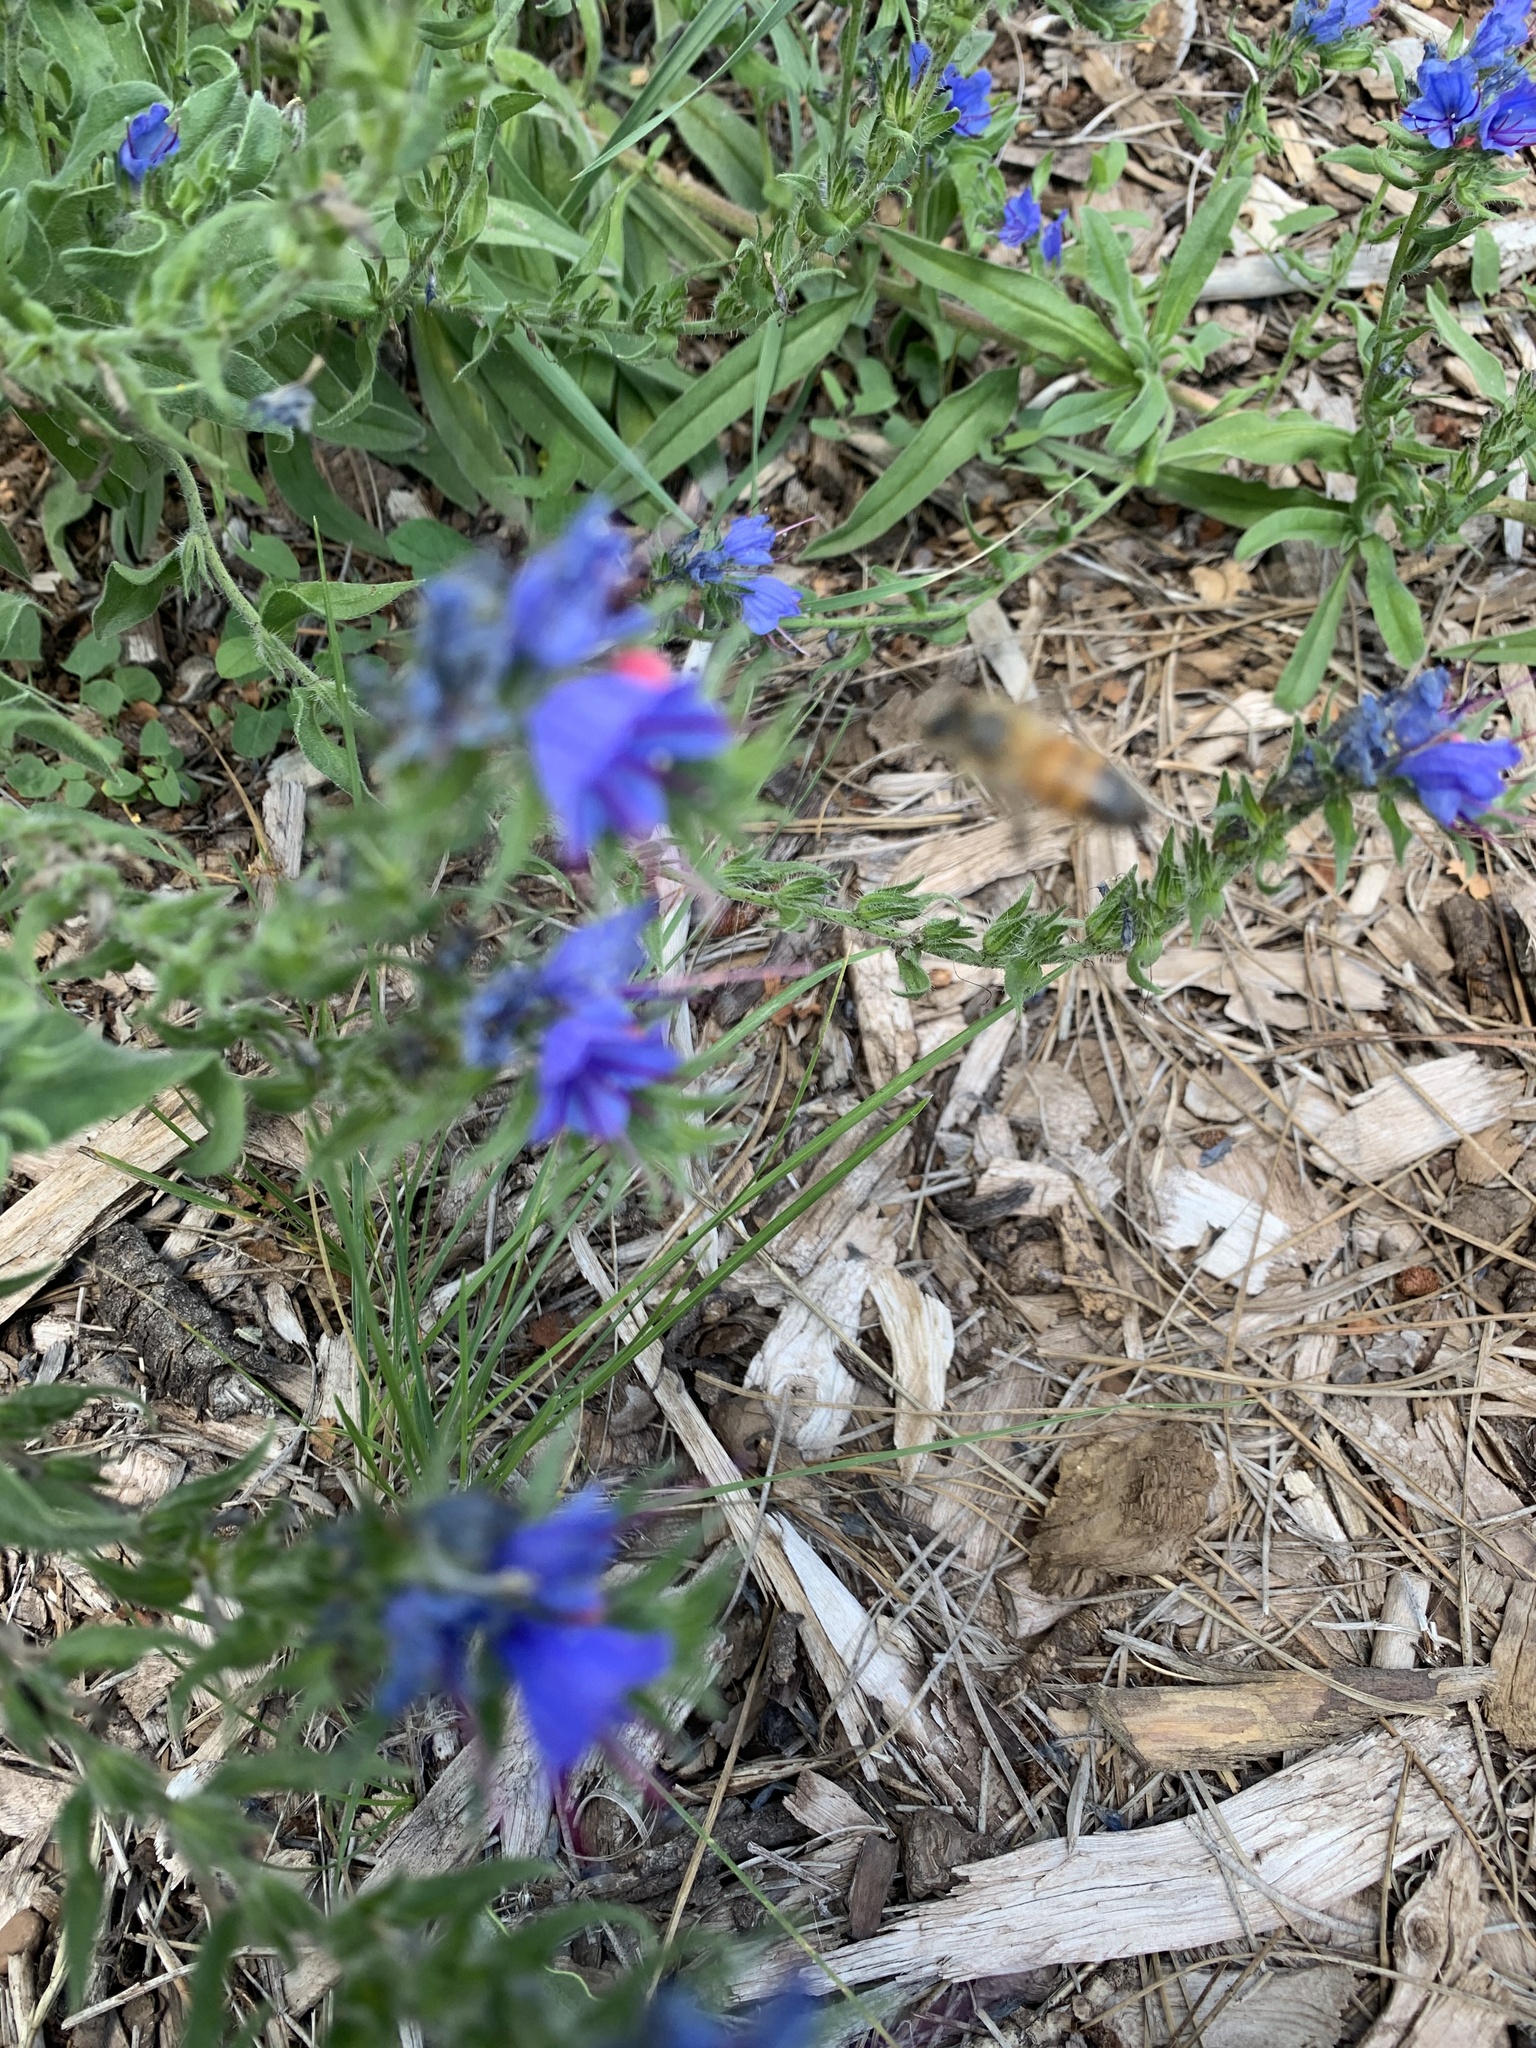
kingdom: Plantae
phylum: Tracheophyta
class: Magnoliopsida
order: Boraginales
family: Boraginaceae
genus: Echium
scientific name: Echium vulgare
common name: Common viper's bugloss
